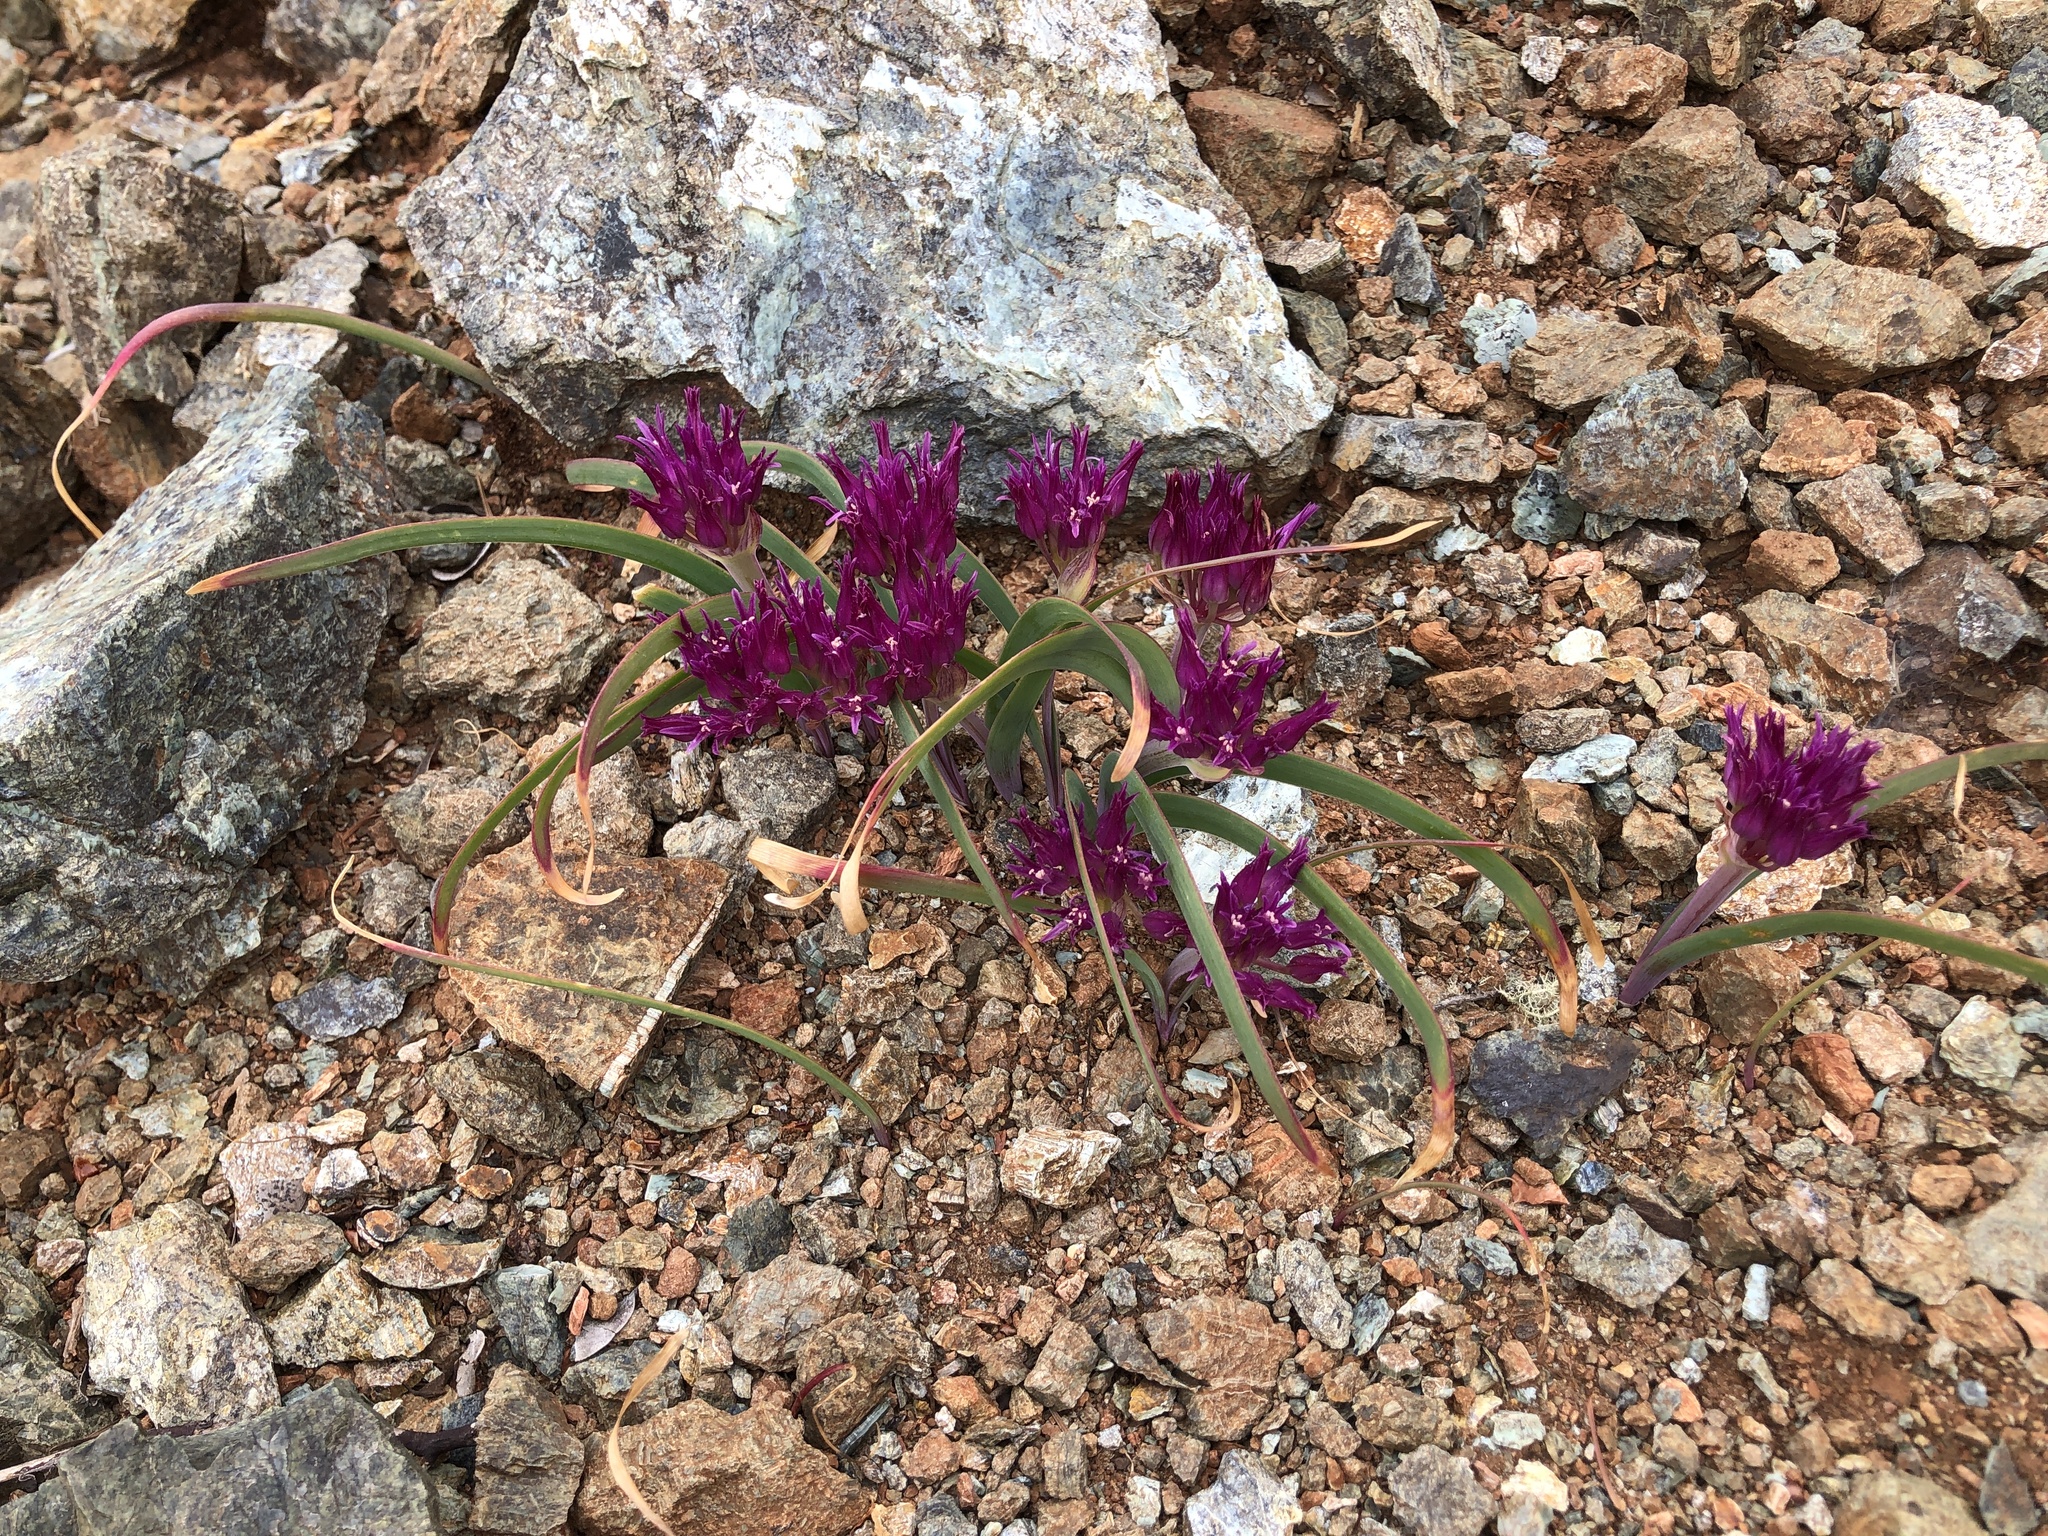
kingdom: Plantae
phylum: Tracheophyta
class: Liliopsida
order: Asparagales
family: Amaryllidaceae
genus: Allium
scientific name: Allium falcifolium
